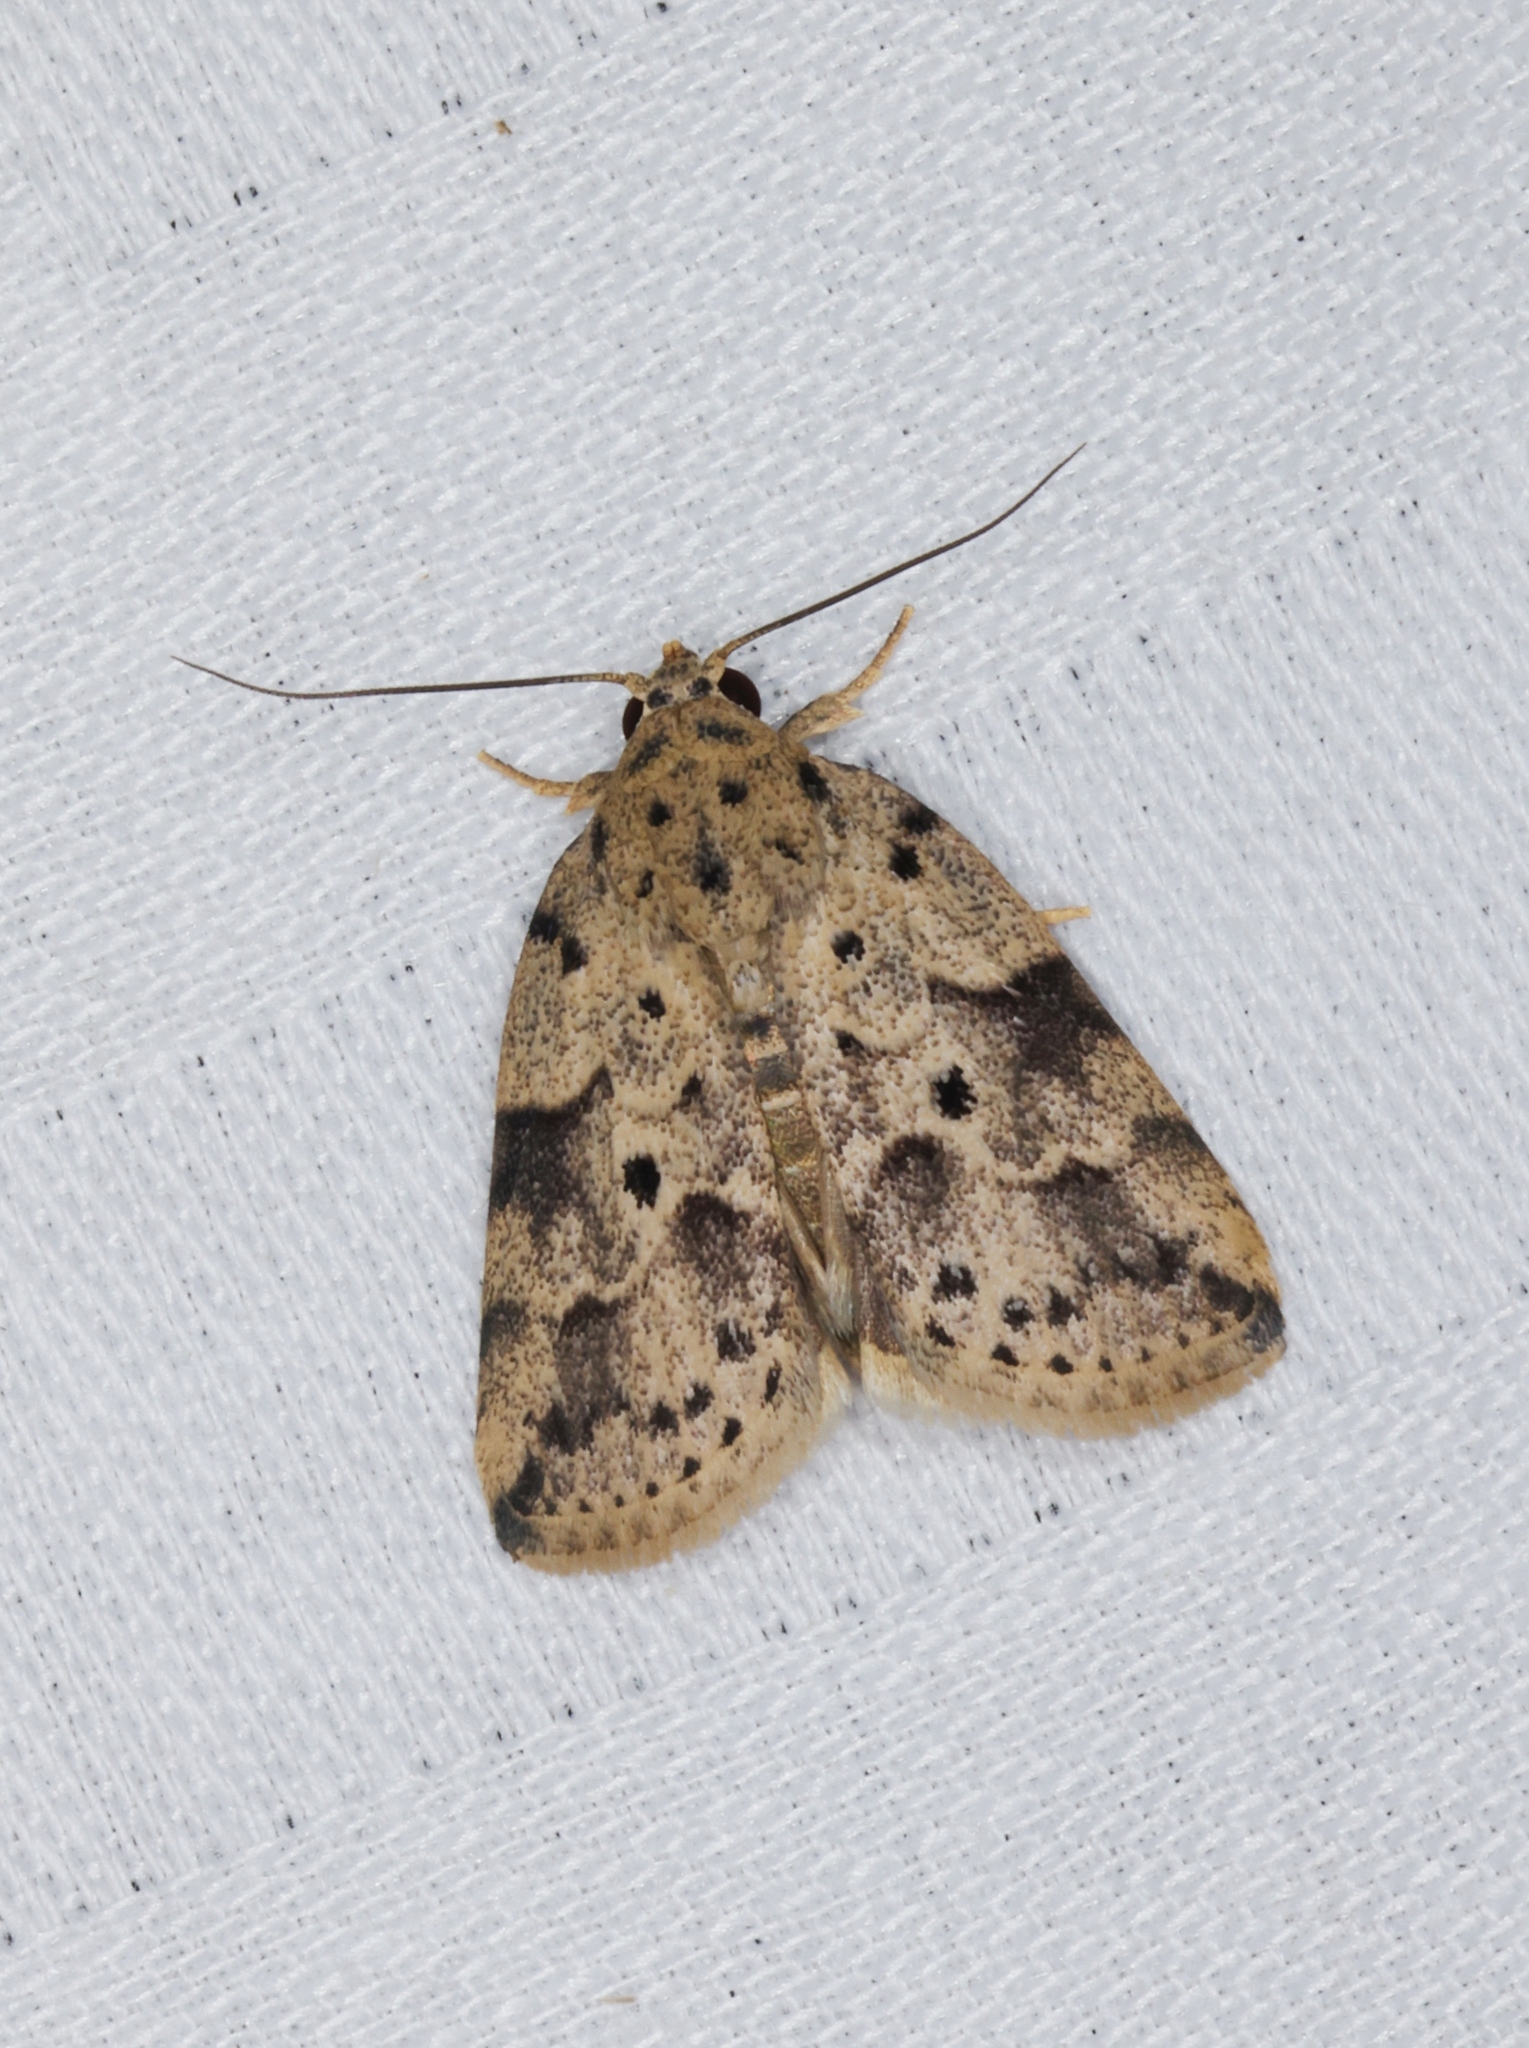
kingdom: Animalia
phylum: Arthropoda
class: Insecta
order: Lepidoptera
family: Nolidae
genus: Giaura
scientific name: Giaura multipunctata
